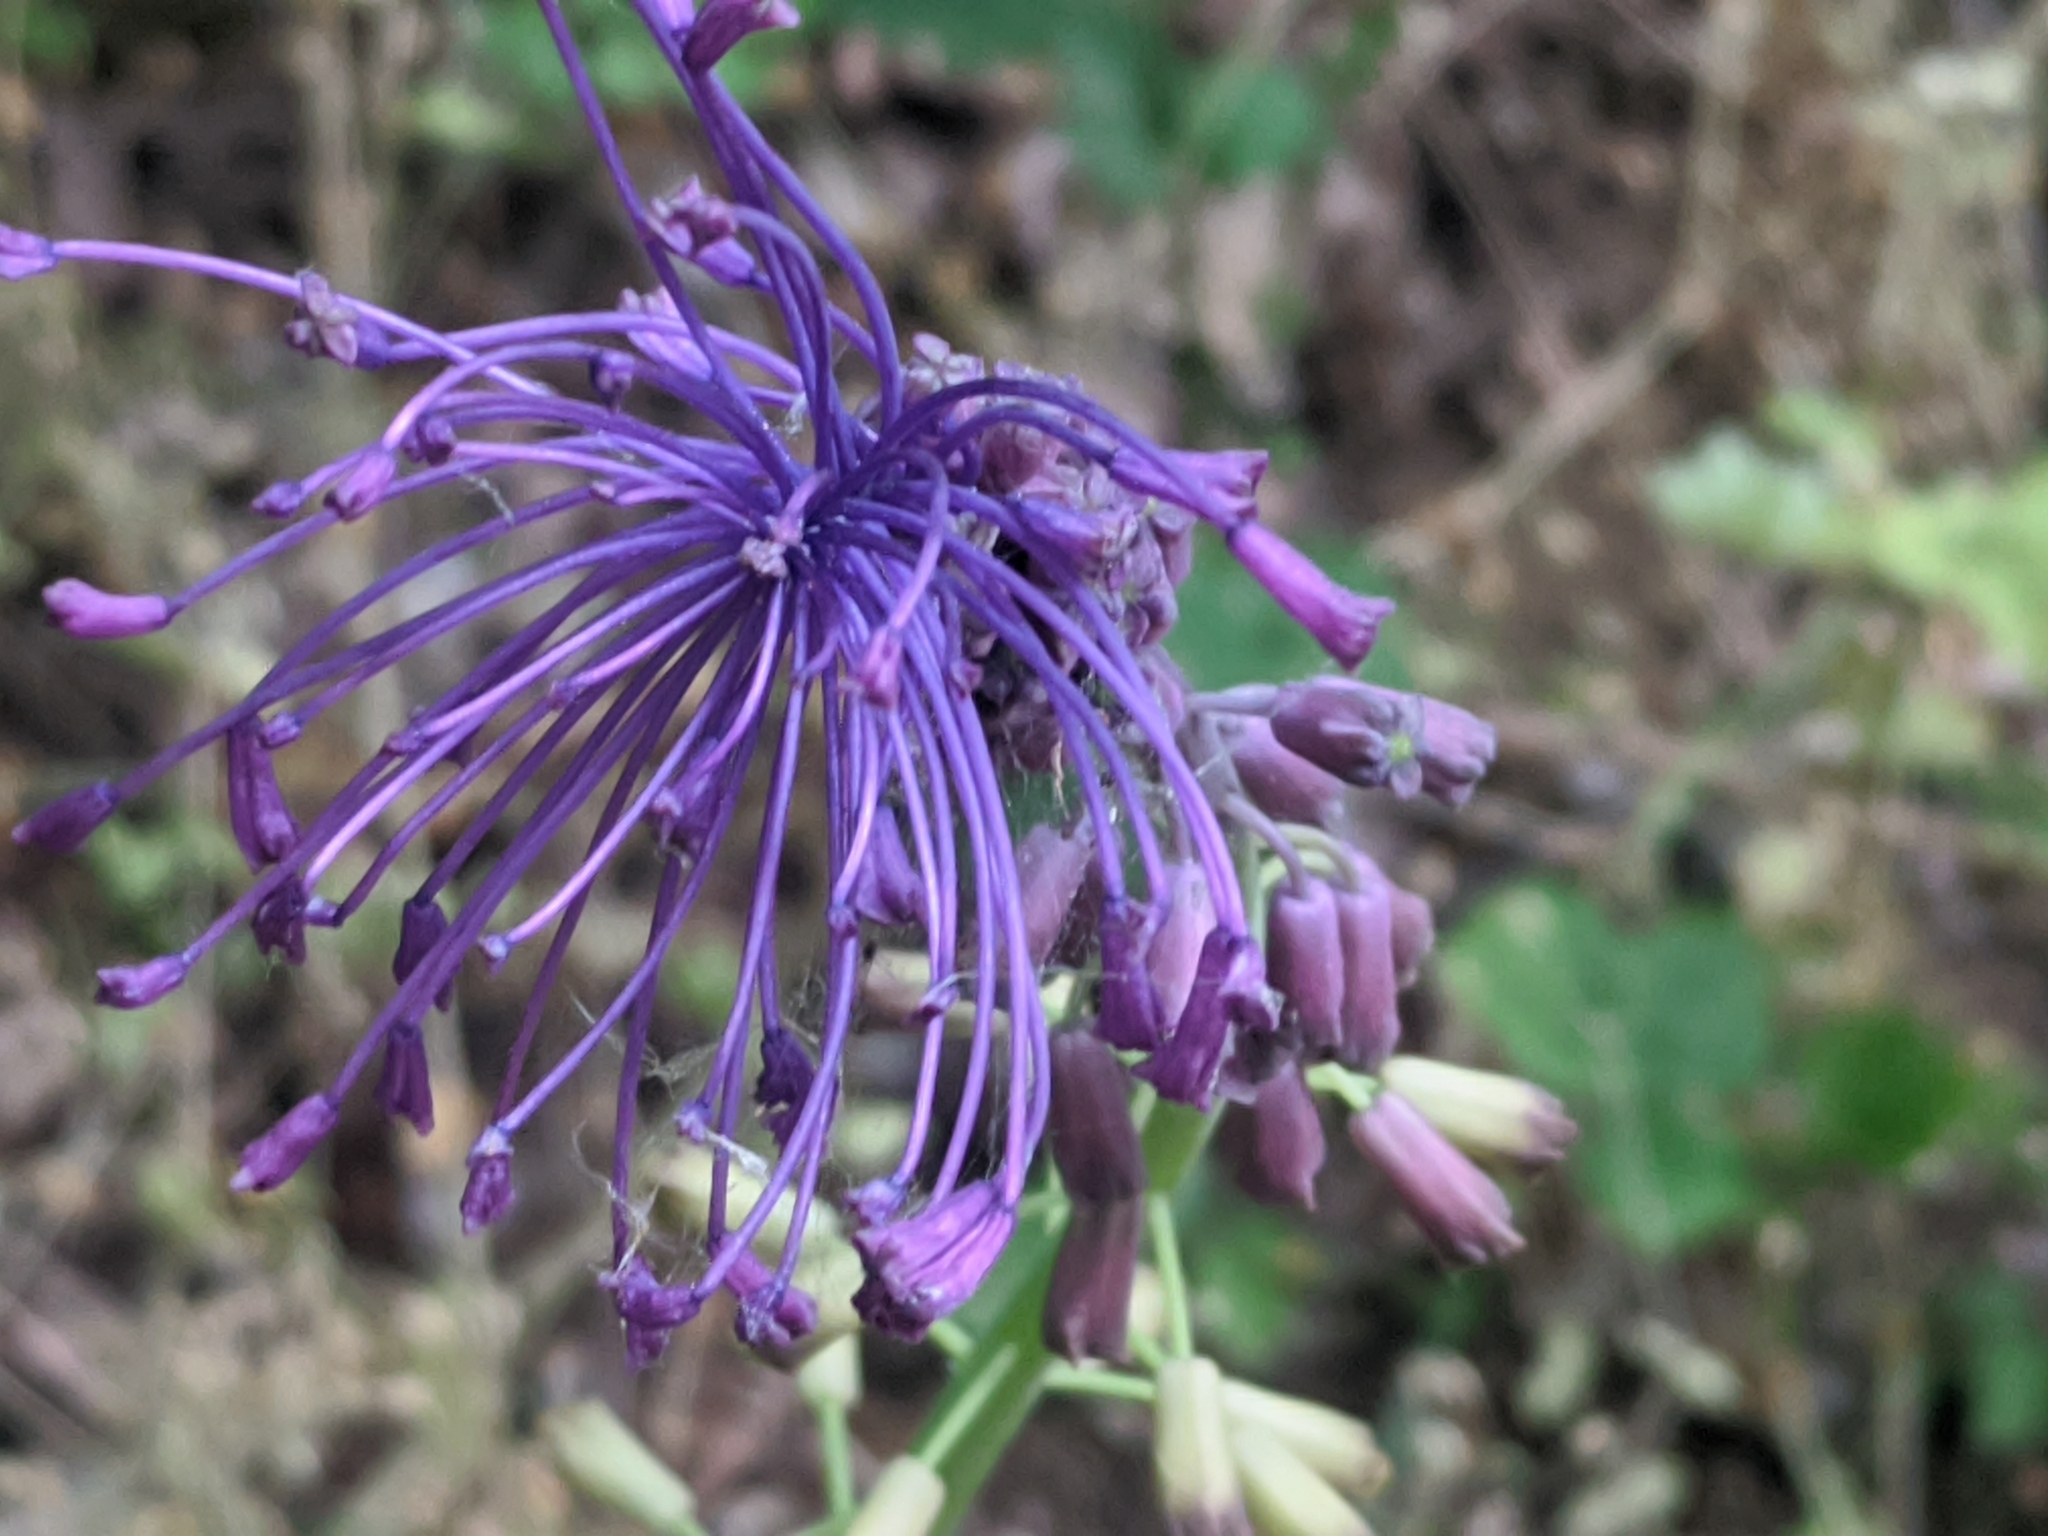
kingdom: Plantae
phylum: Tracheophyta
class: Liliopsida
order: Asparagales
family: Asparagaceae
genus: Muscari
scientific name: Muscari comosum
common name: Tassel hyacinth
